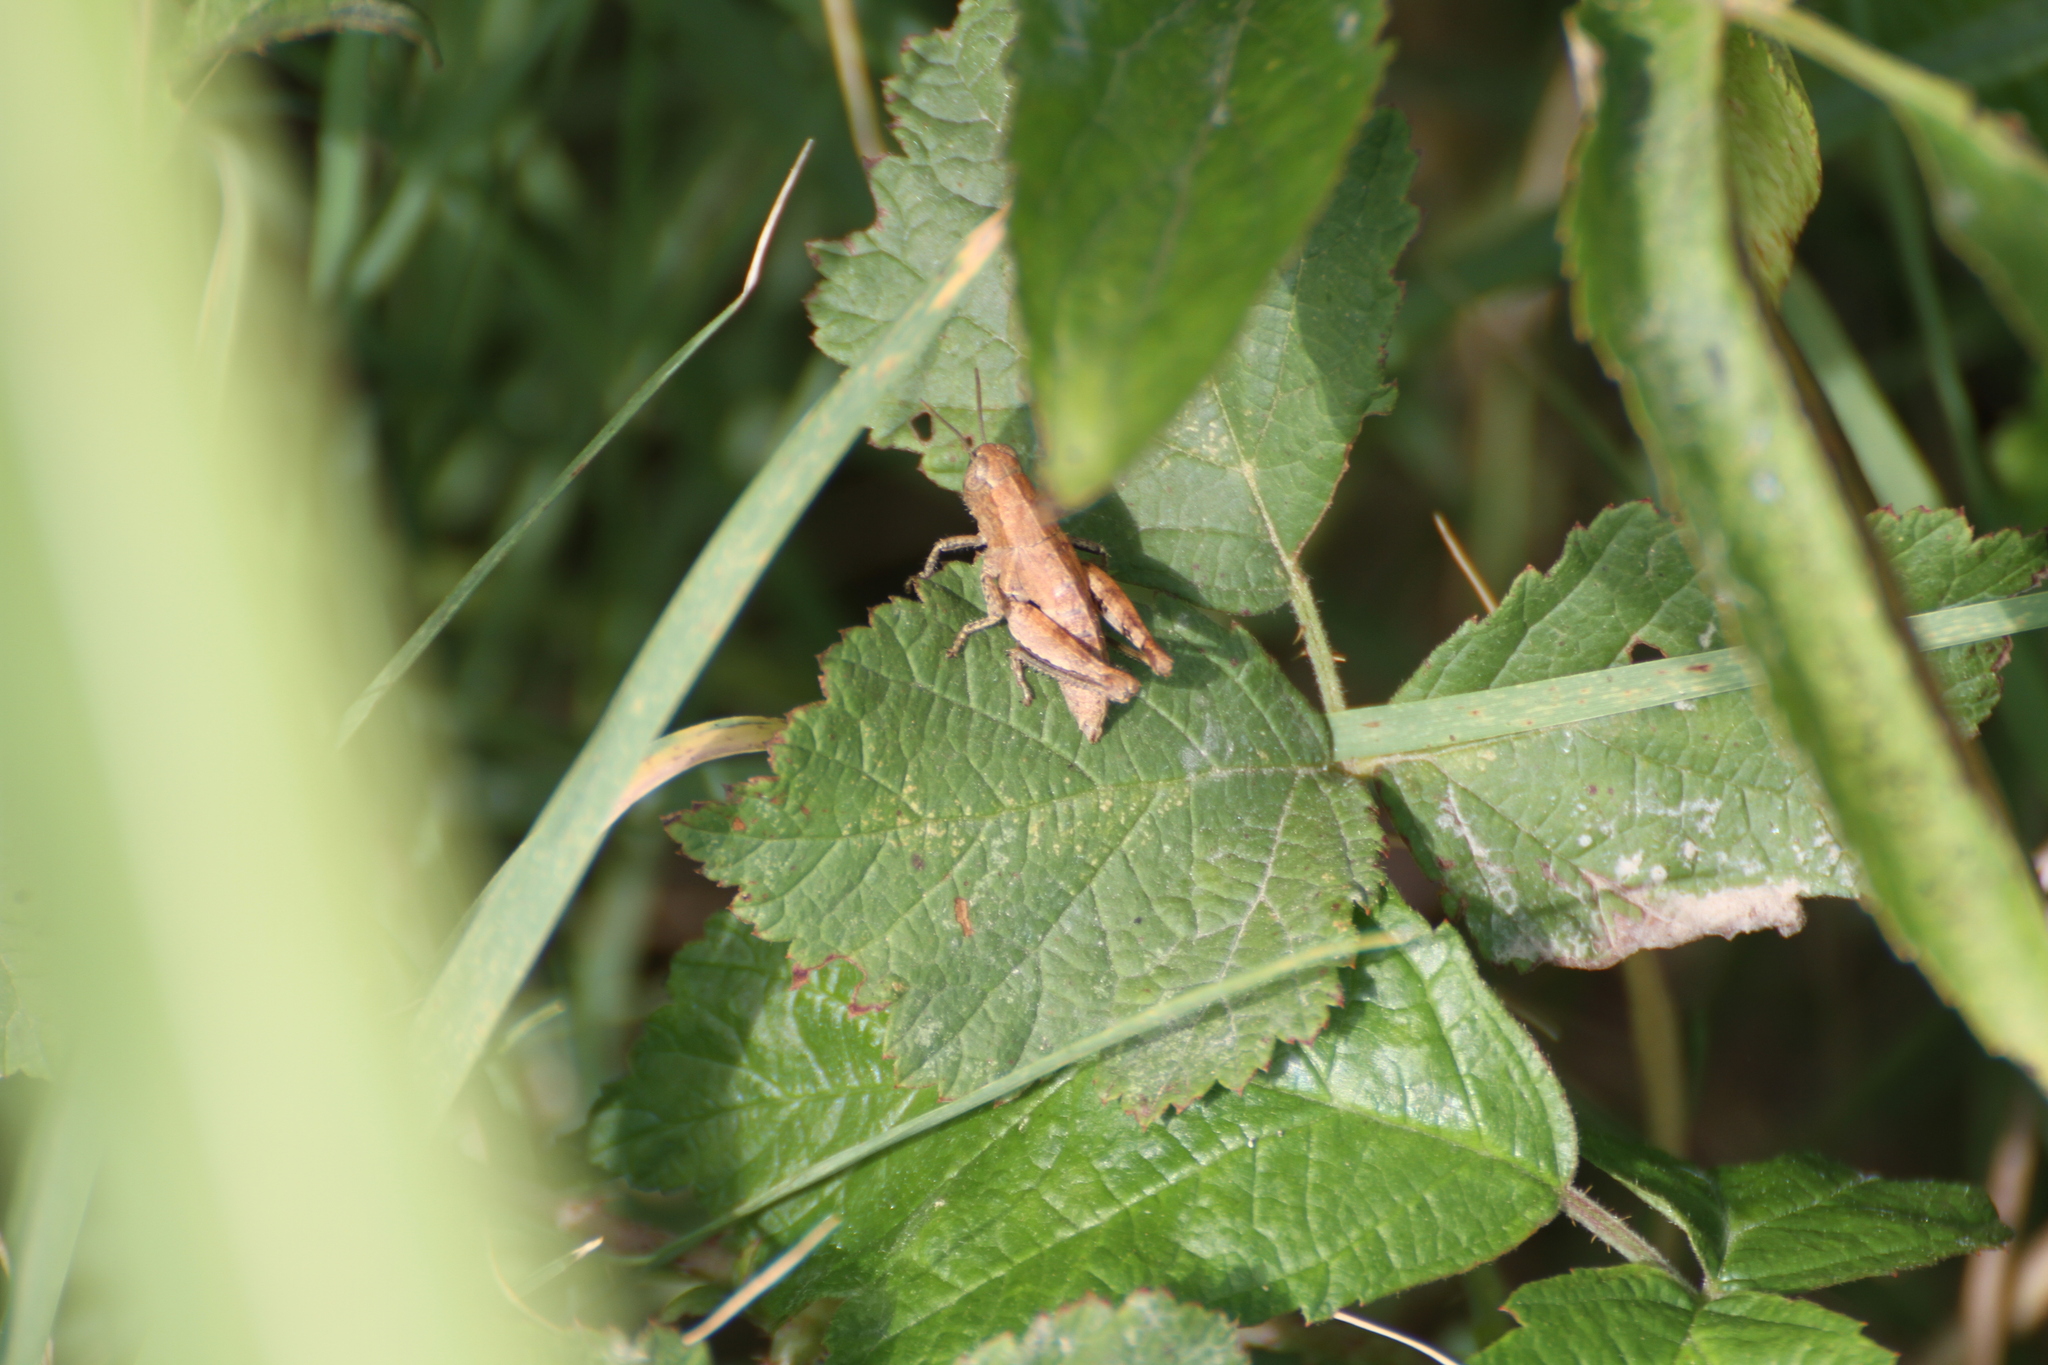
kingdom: Animalia
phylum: Arthropoda
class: Insecta
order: Orthoptera
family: Acrididae
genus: Pezotettix
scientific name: Pezotettix giornae
